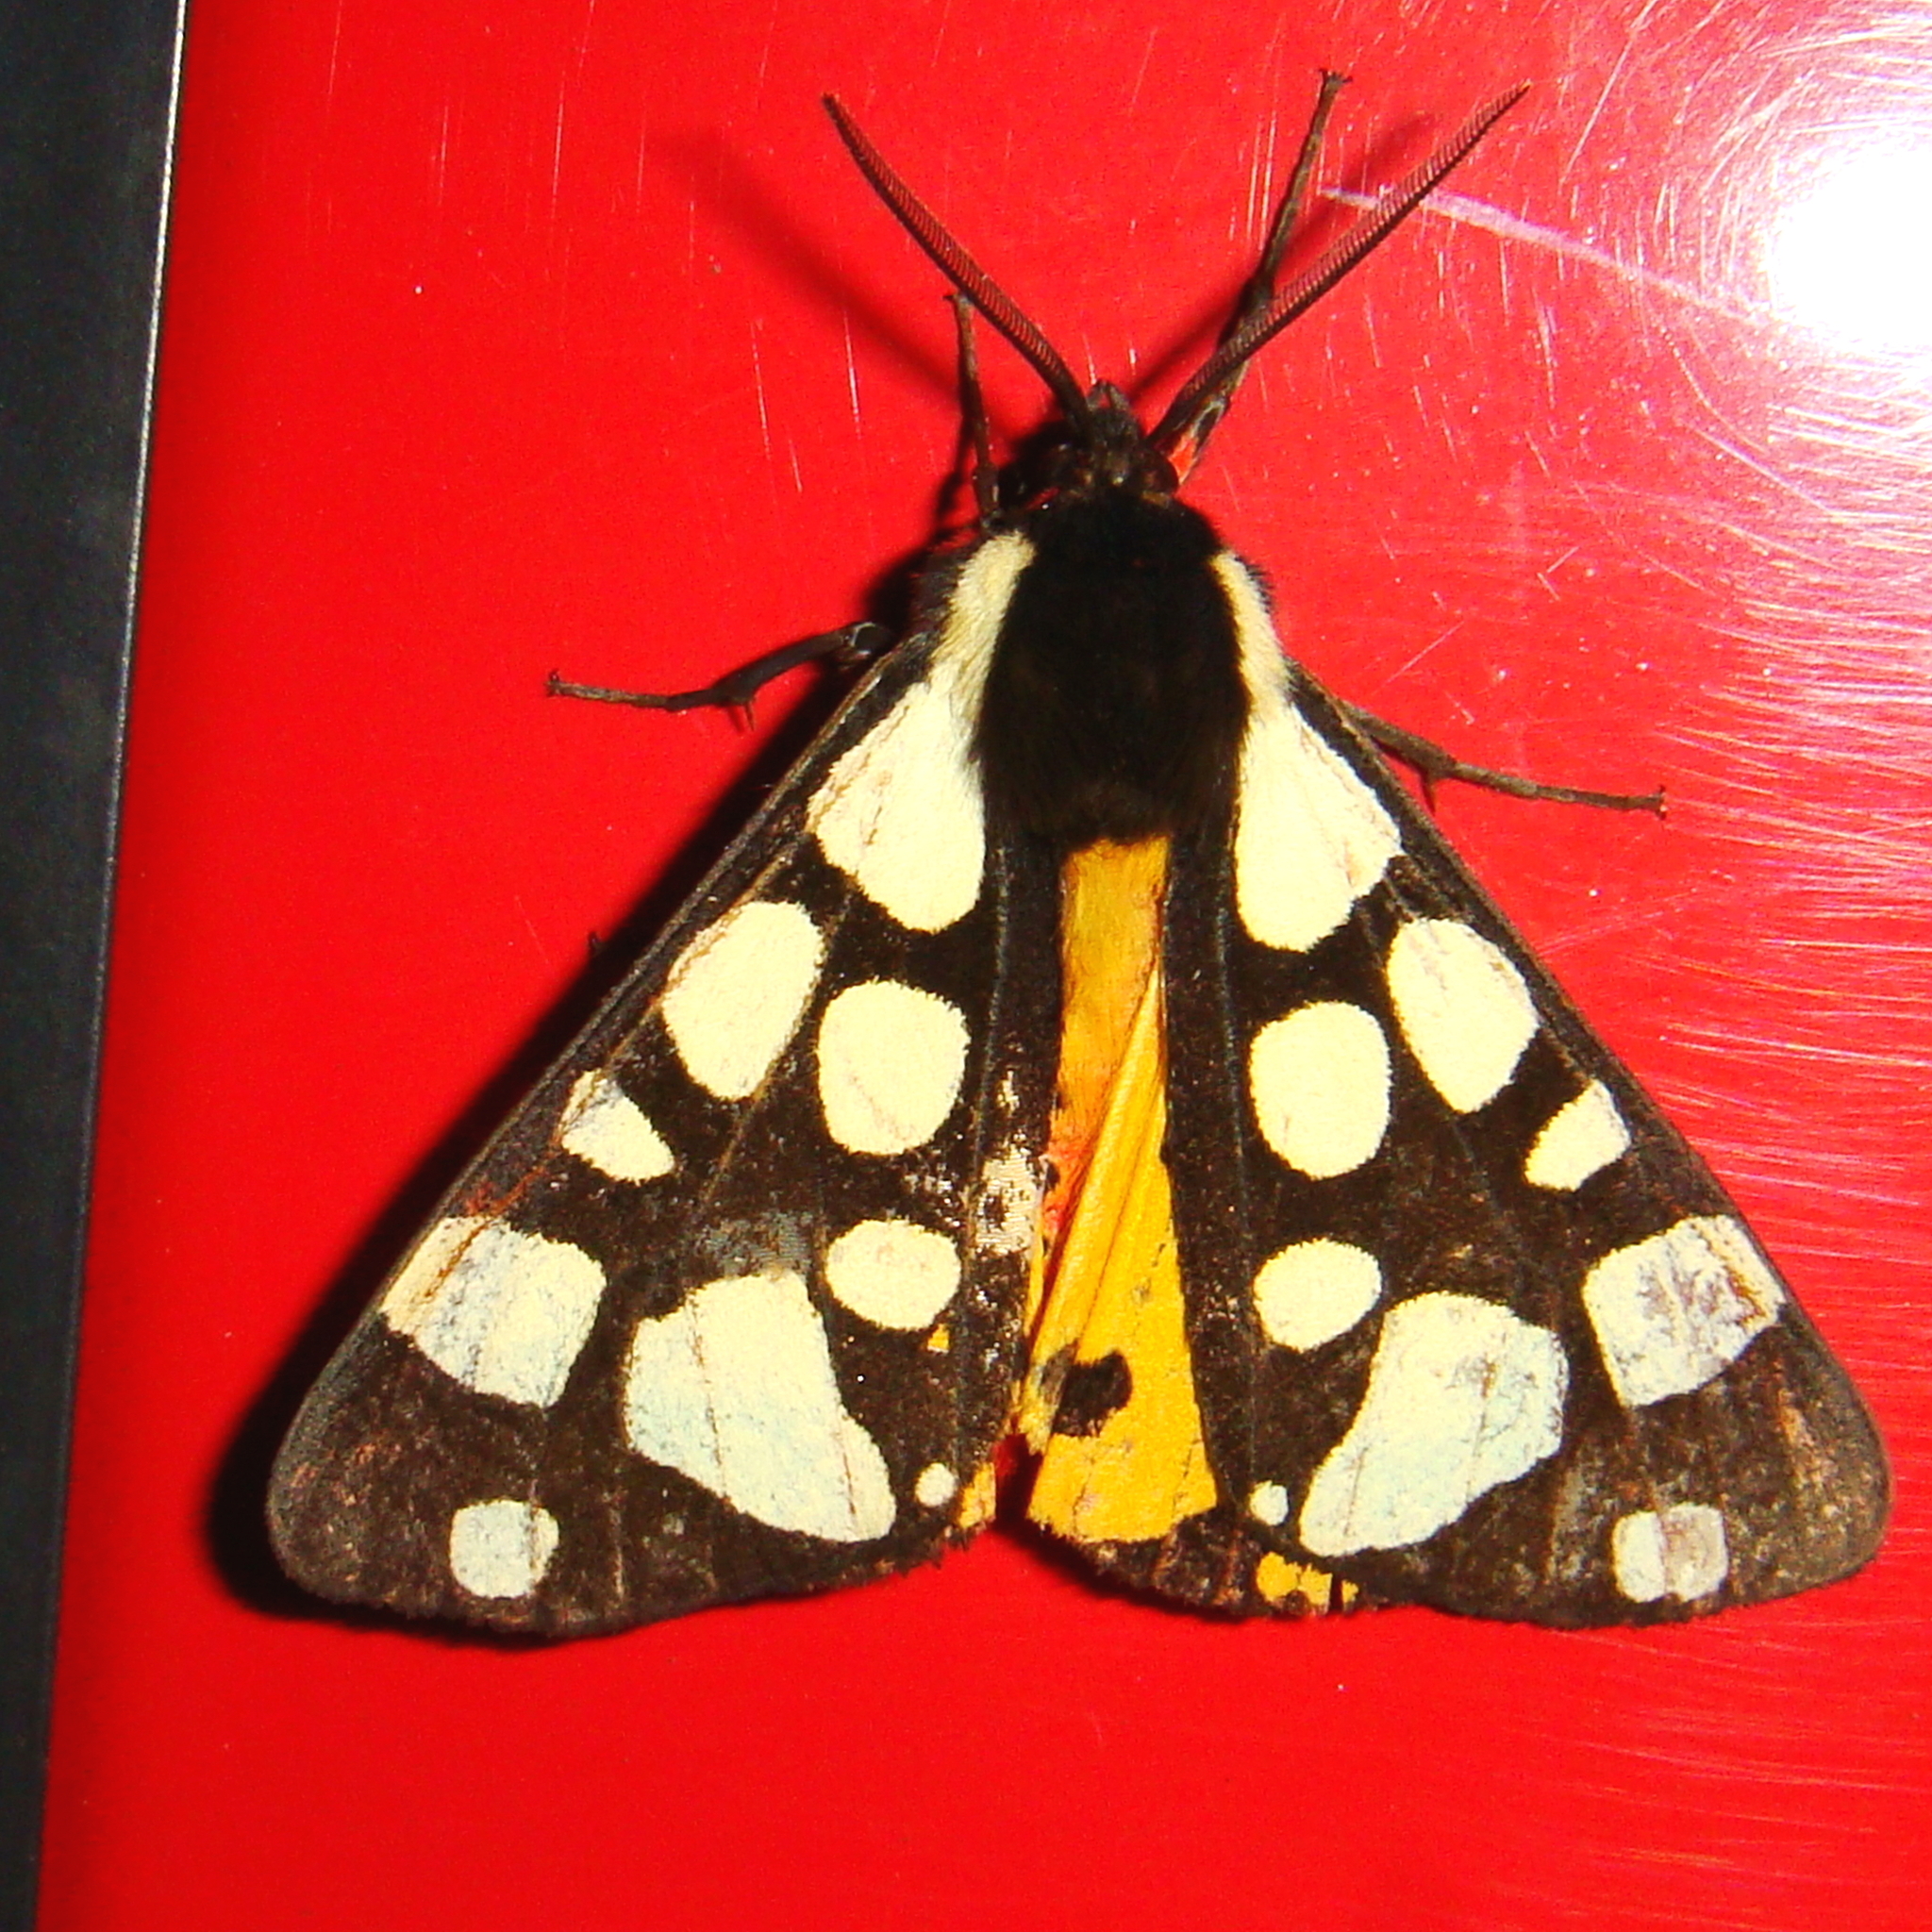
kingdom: Animalia
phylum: Arthropoda
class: Insecta
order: Lepidoptera
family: Erebidae
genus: Epicallia
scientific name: Epicallia villica
